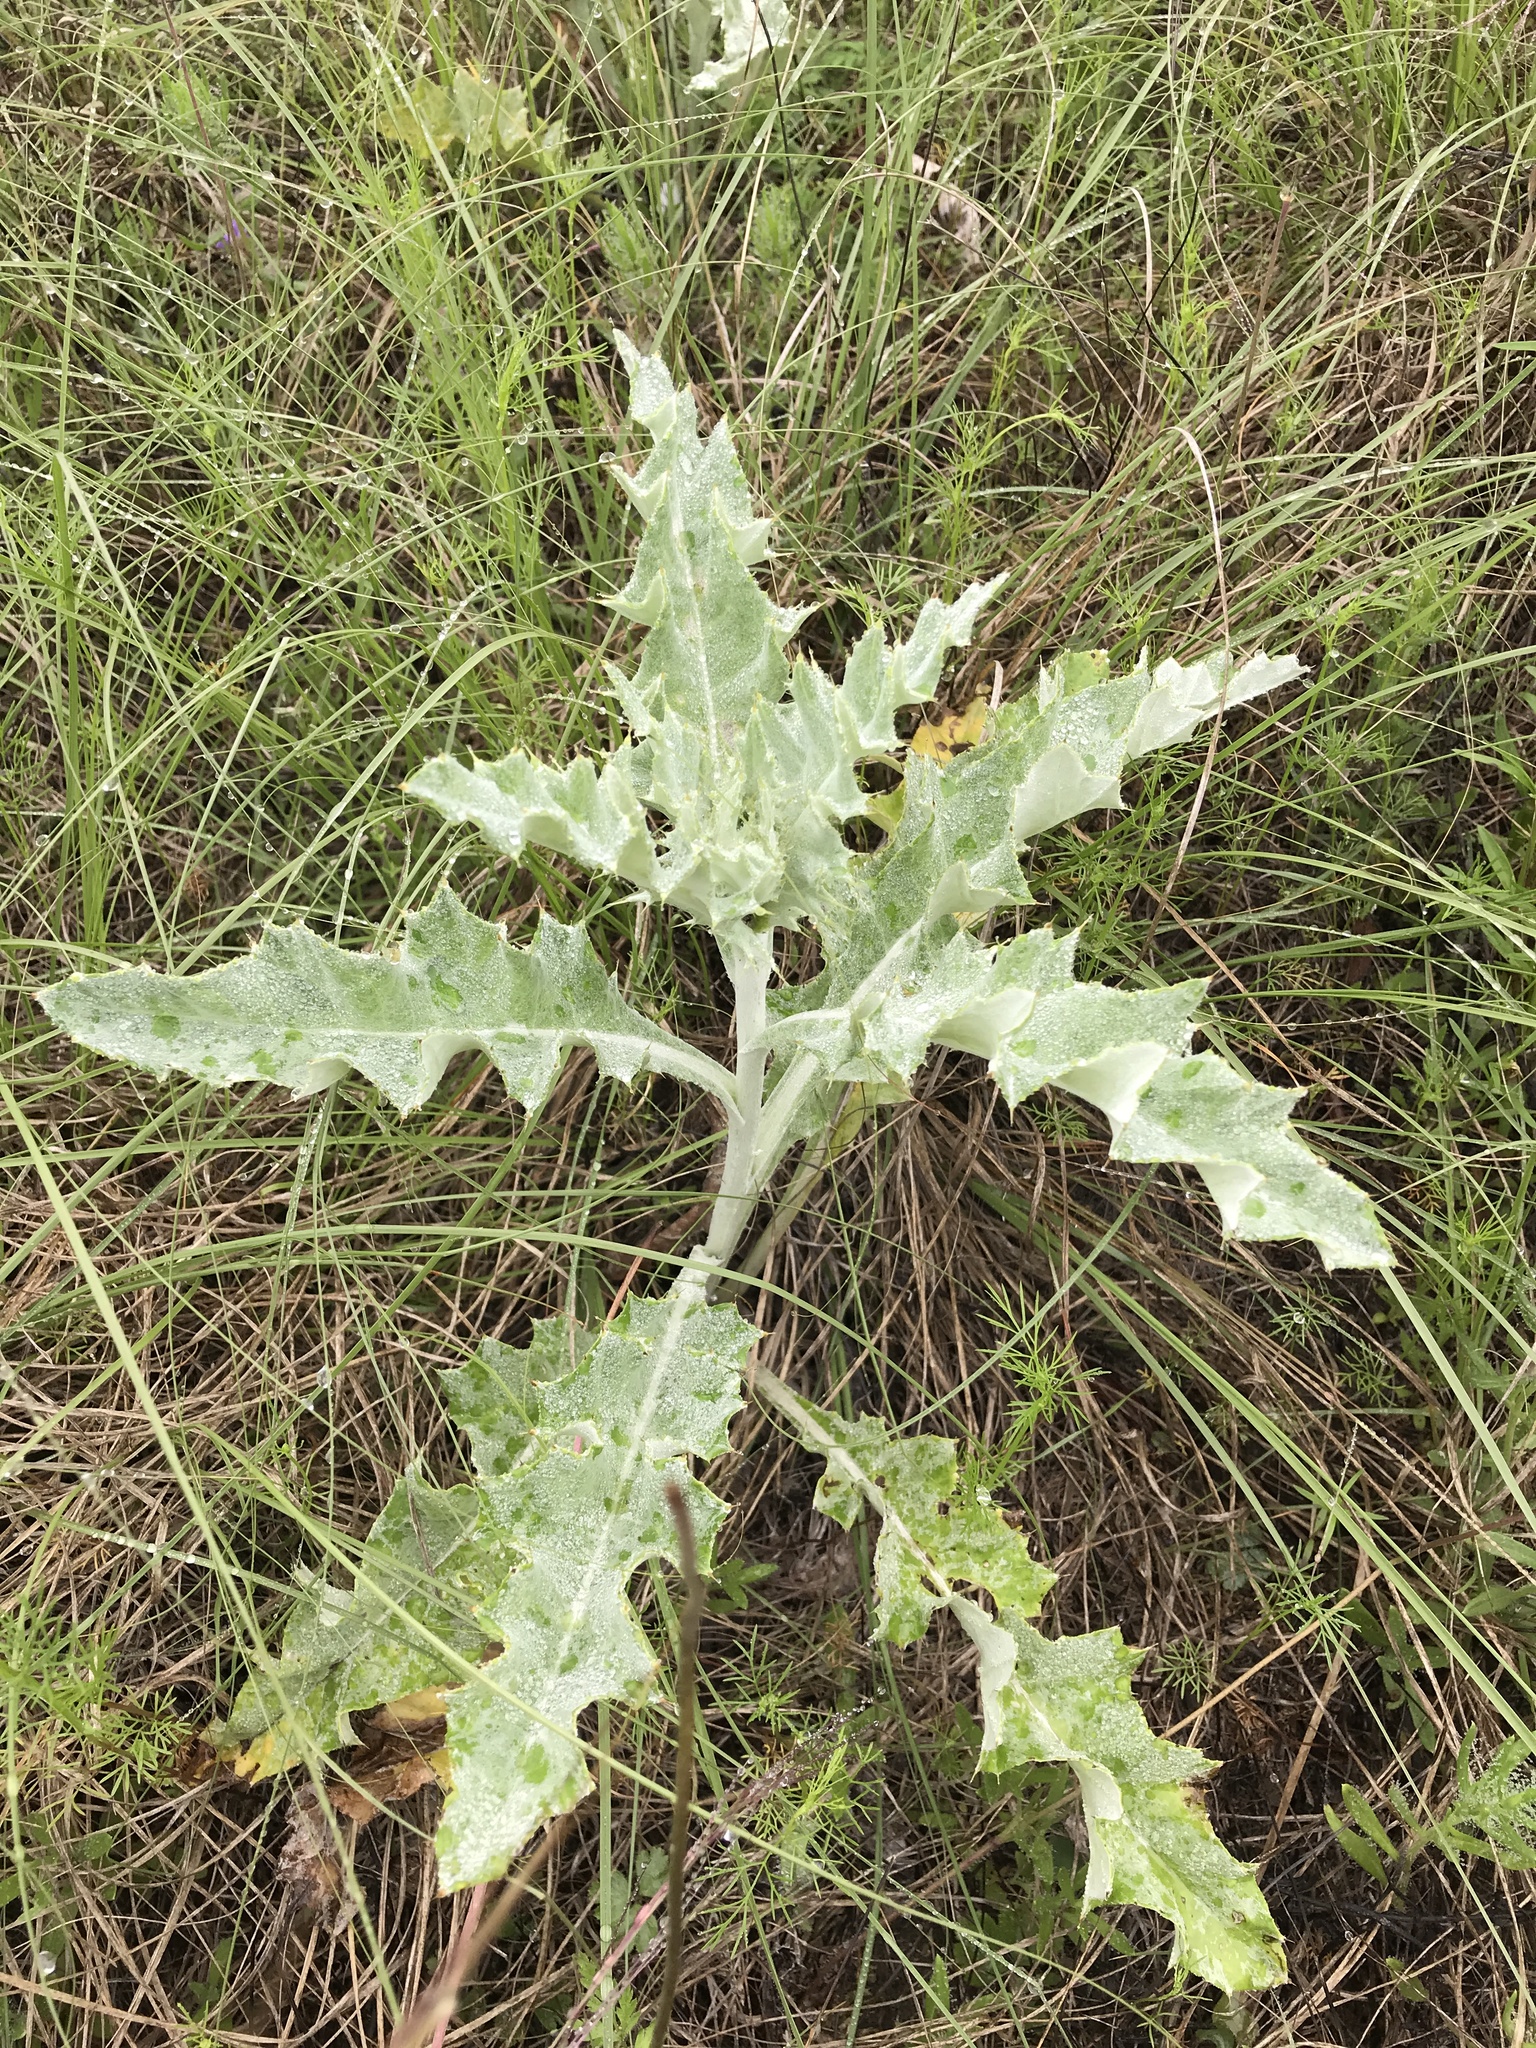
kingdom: Plantae
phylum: Tracheophyta
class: Magnoliopsida
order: Asterales
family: Asteraceae
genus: Cirsium
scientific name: Cirsium undulatum
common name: Pasture thistle
